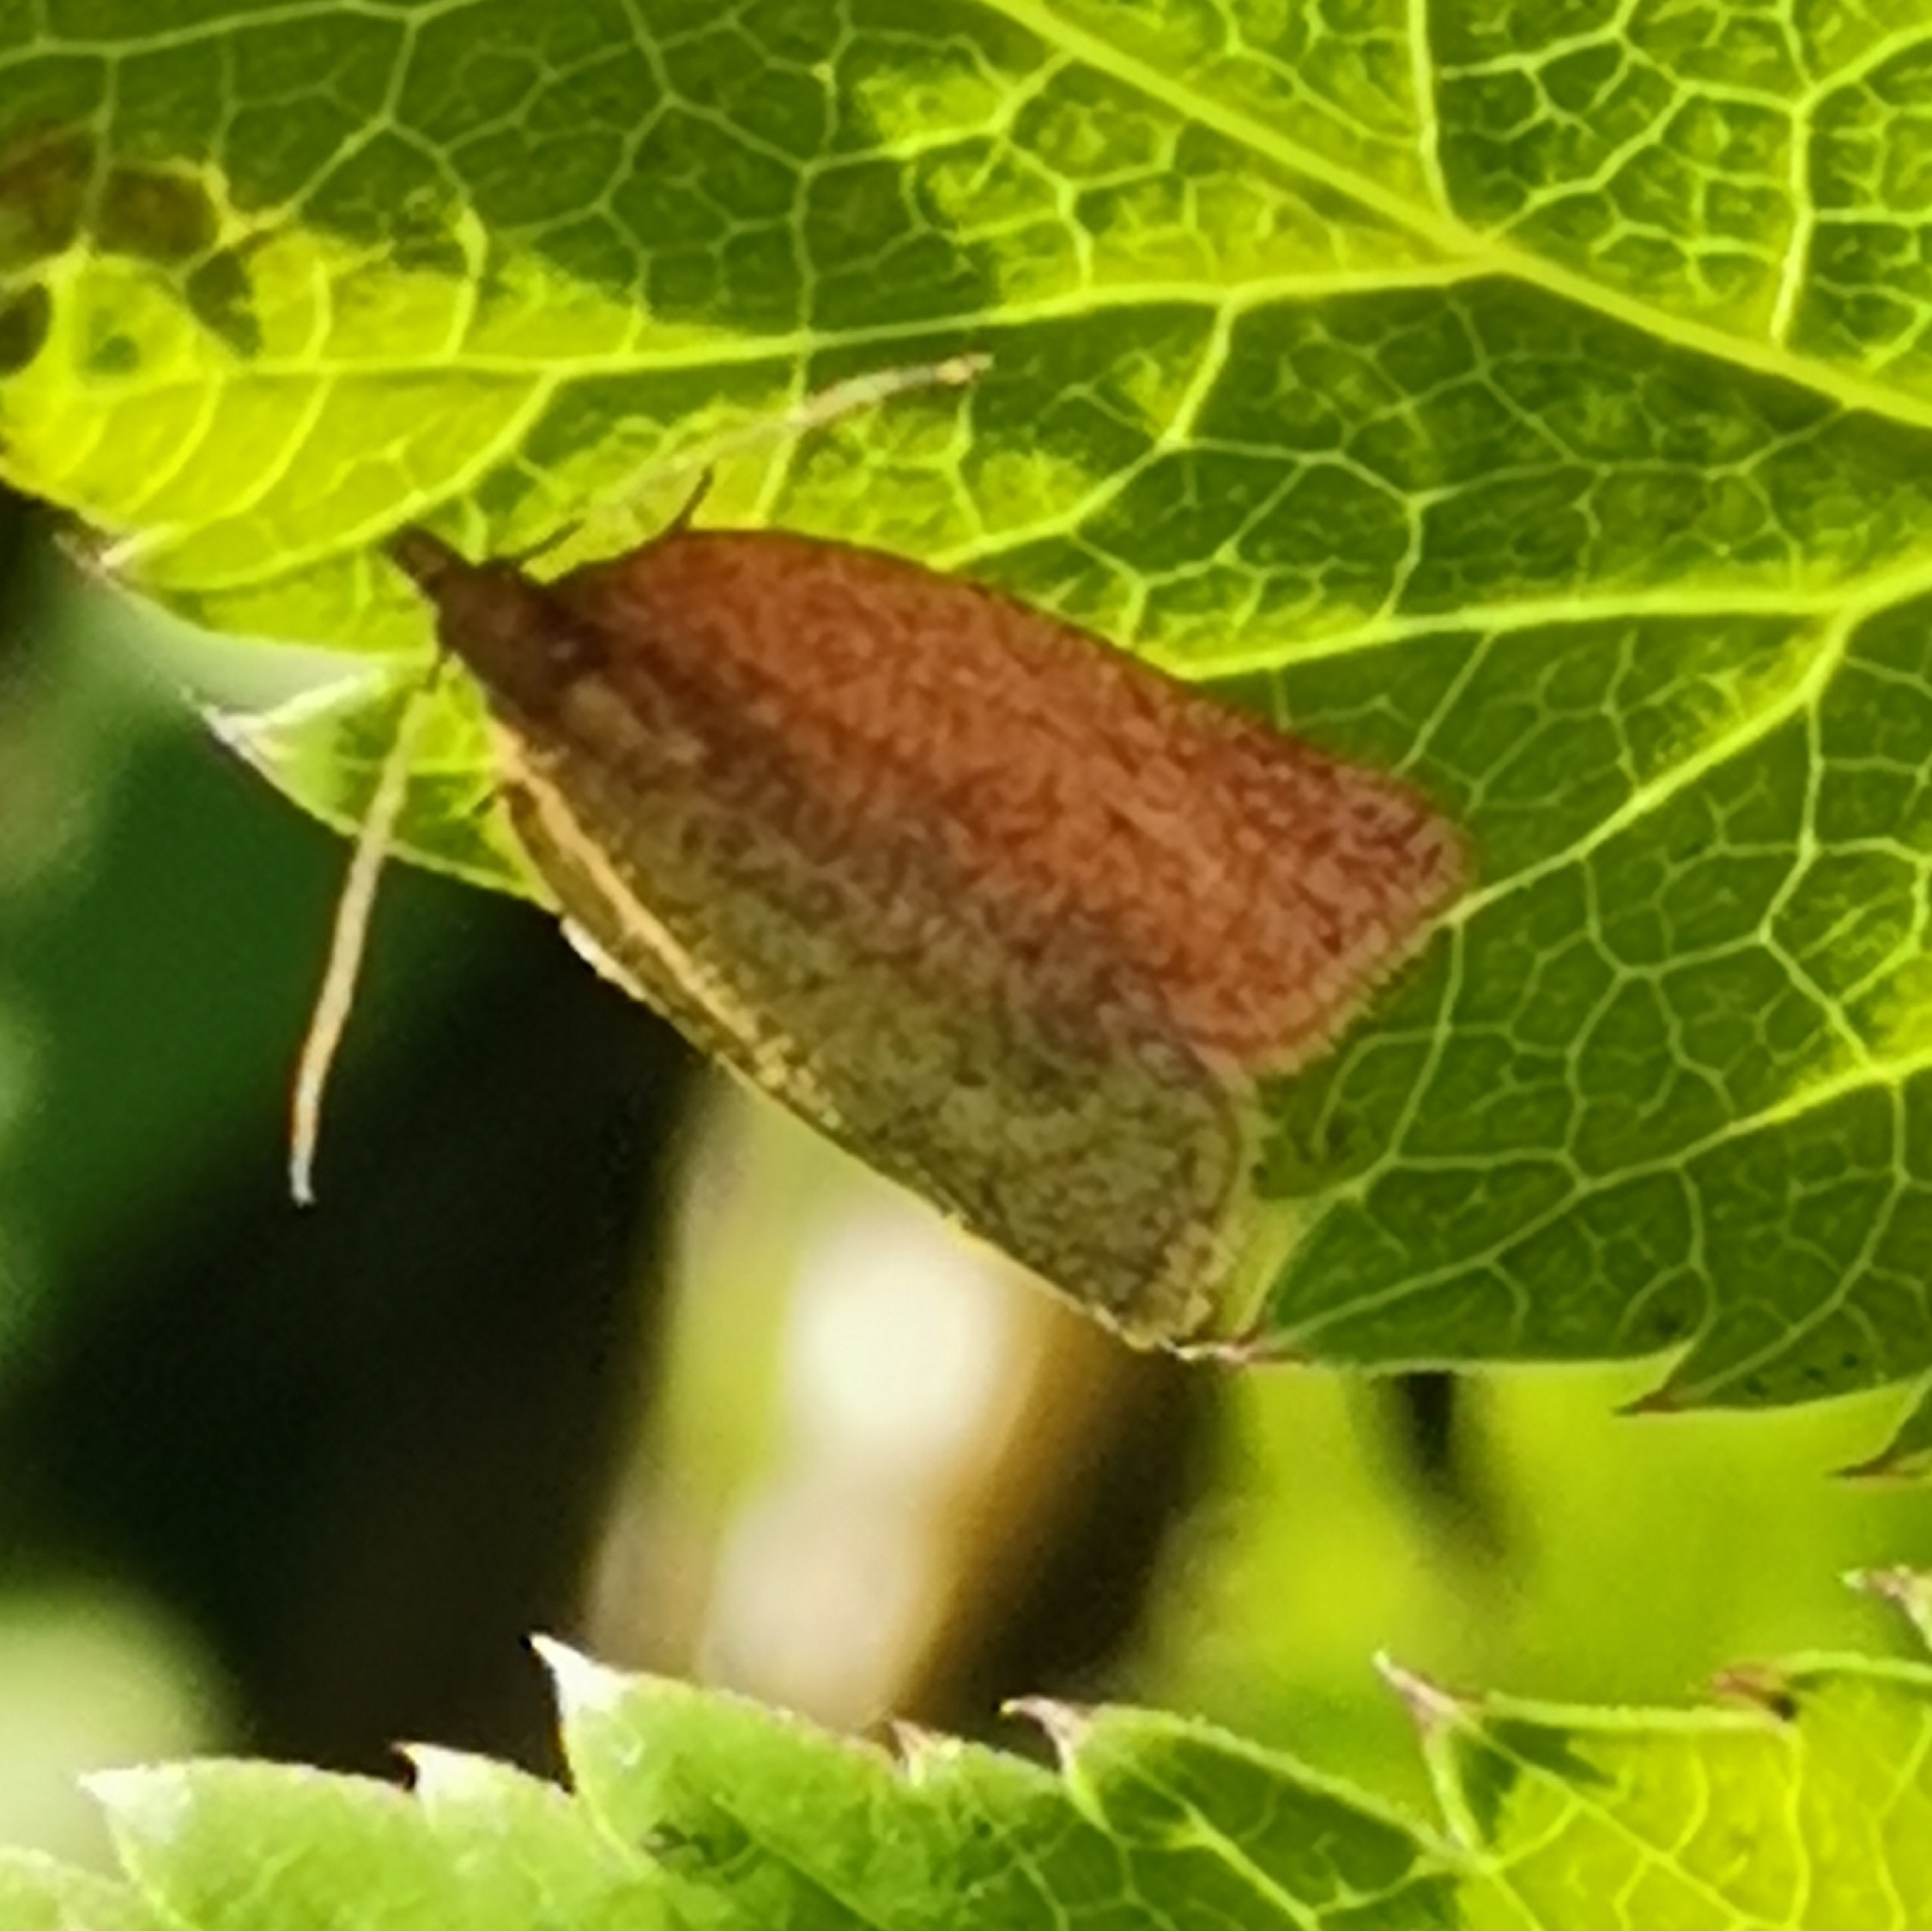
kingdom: Animalia
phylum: Arthropoda
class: Insecta
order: Lepidoptera
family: Tortricidae
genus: Clepsis
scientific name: Clepsis senecionana
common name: Obscure tortrix
